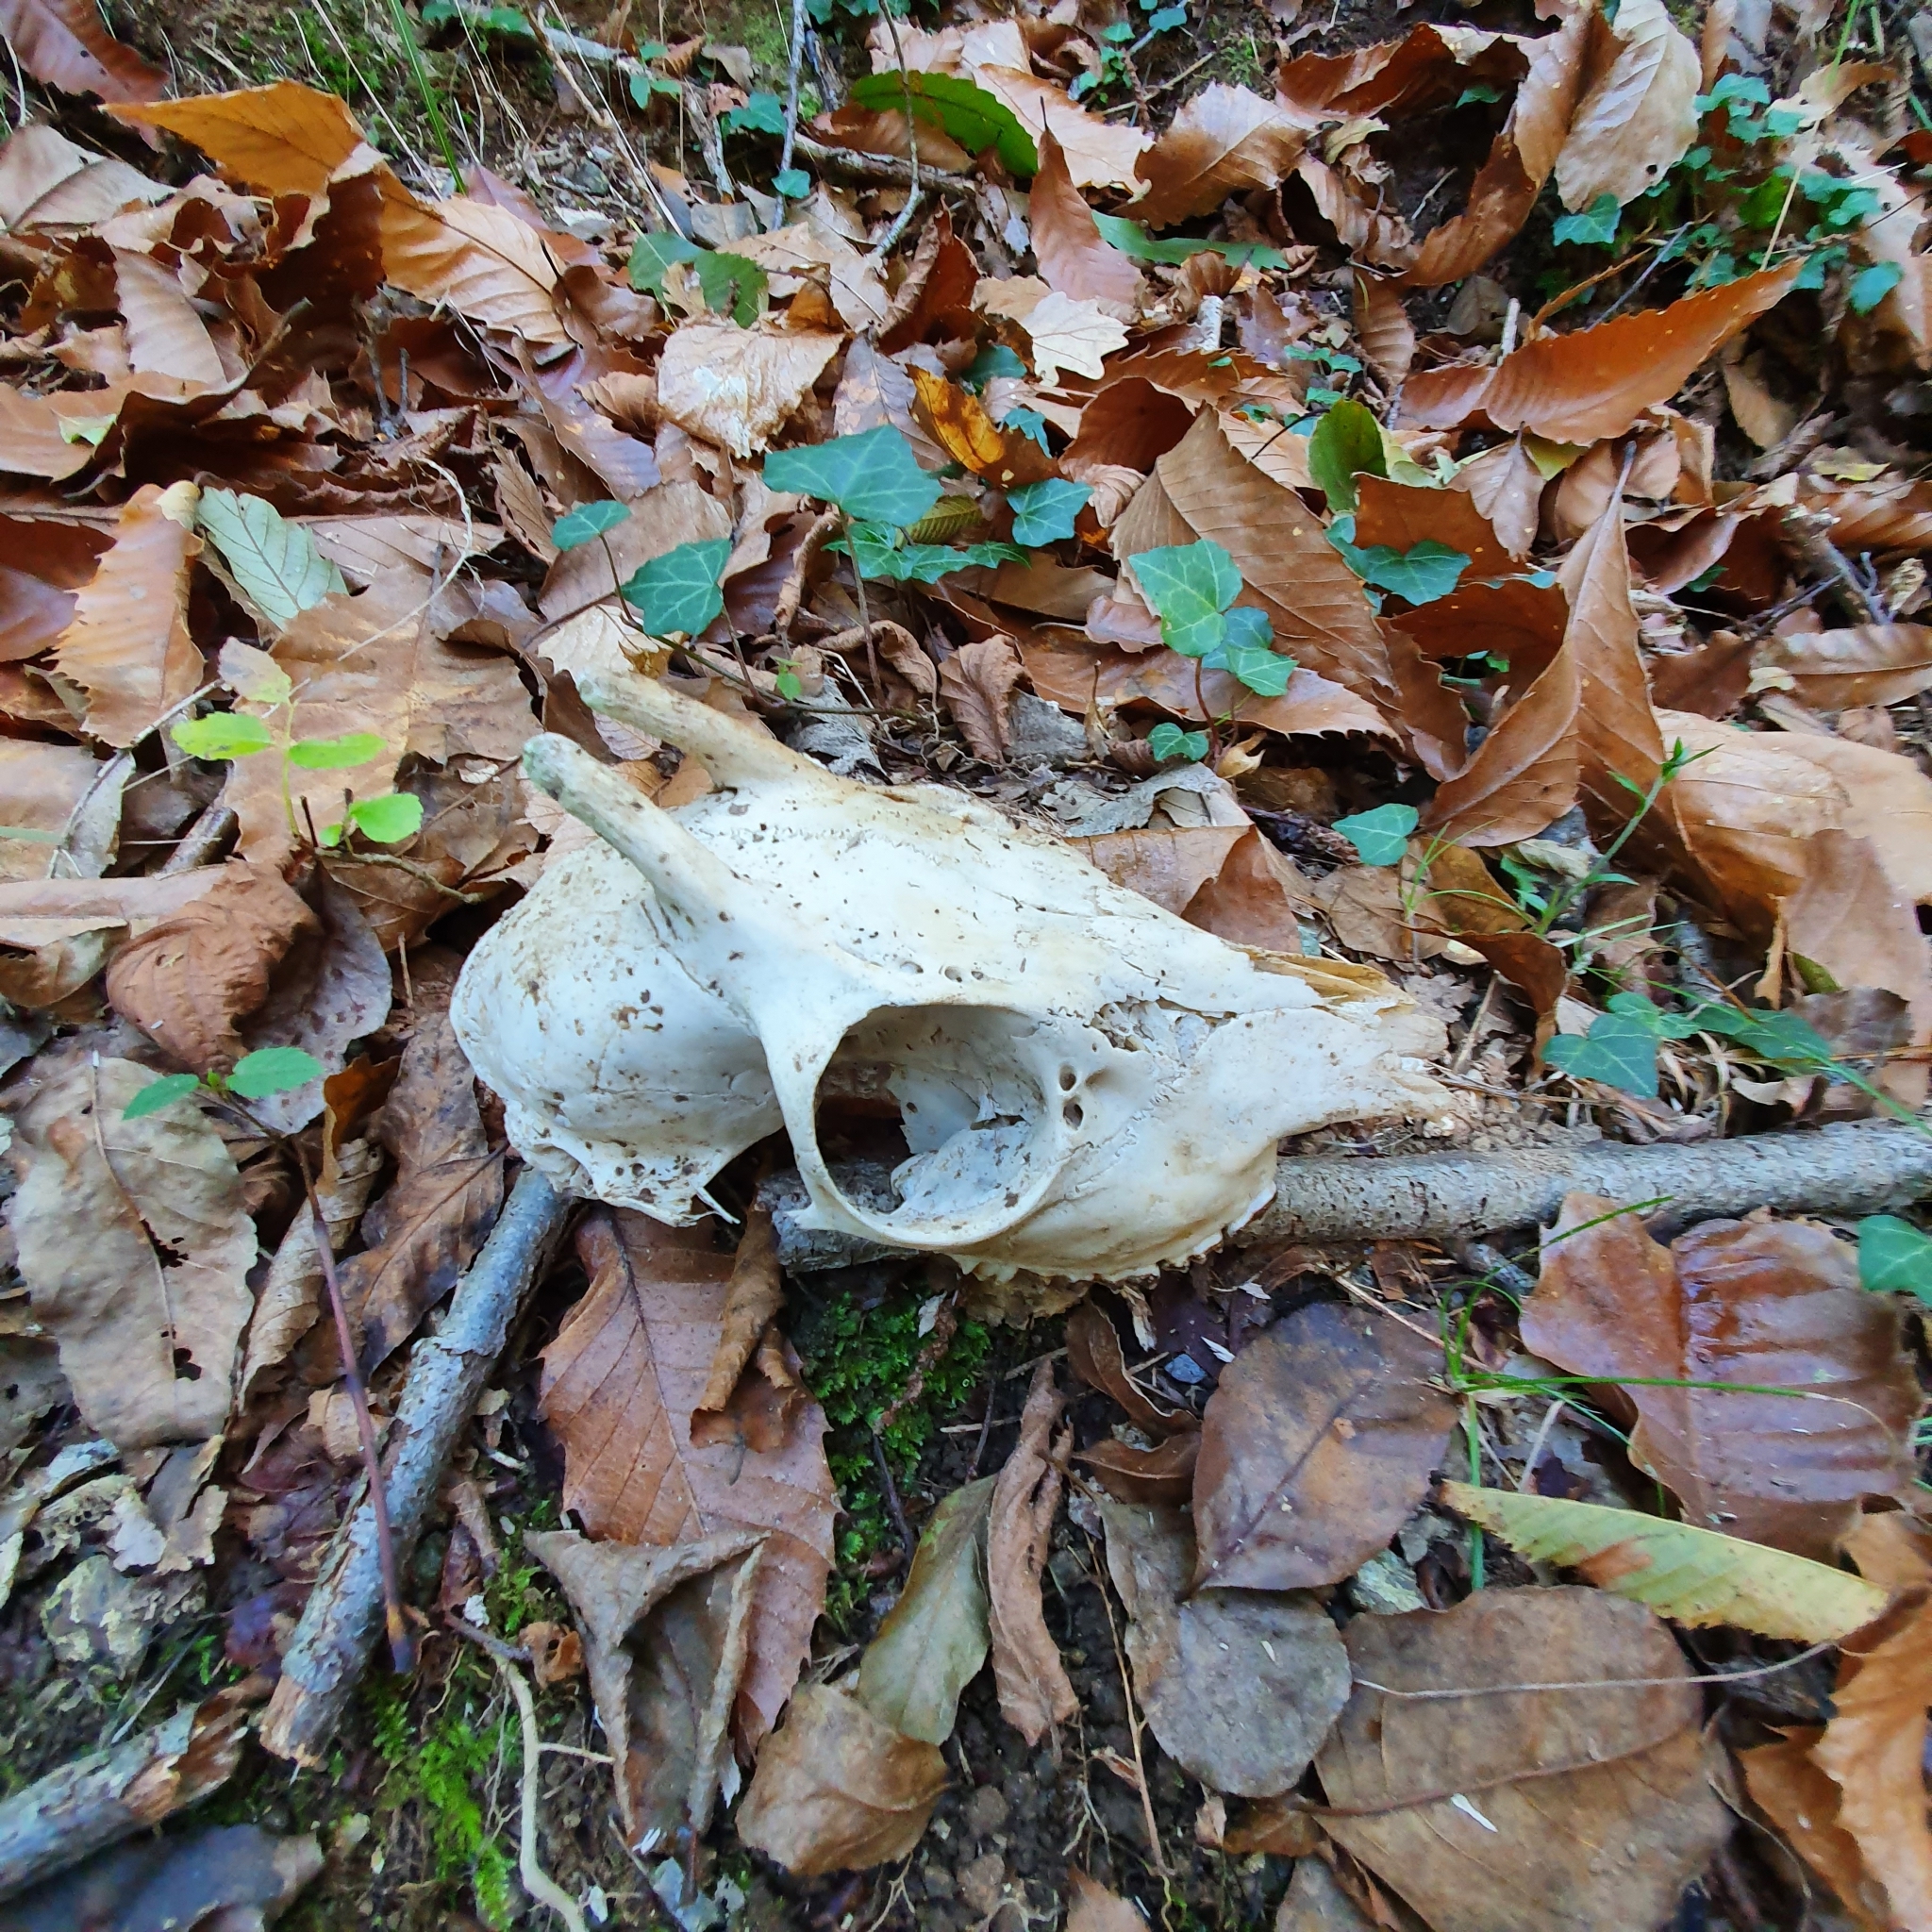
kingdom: Animalia
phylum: Chordata
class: Mammalia
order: Artiodactyla
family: Cervidae
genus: Capreolus
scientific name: Capreolus capreolus
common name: Western roe deer
